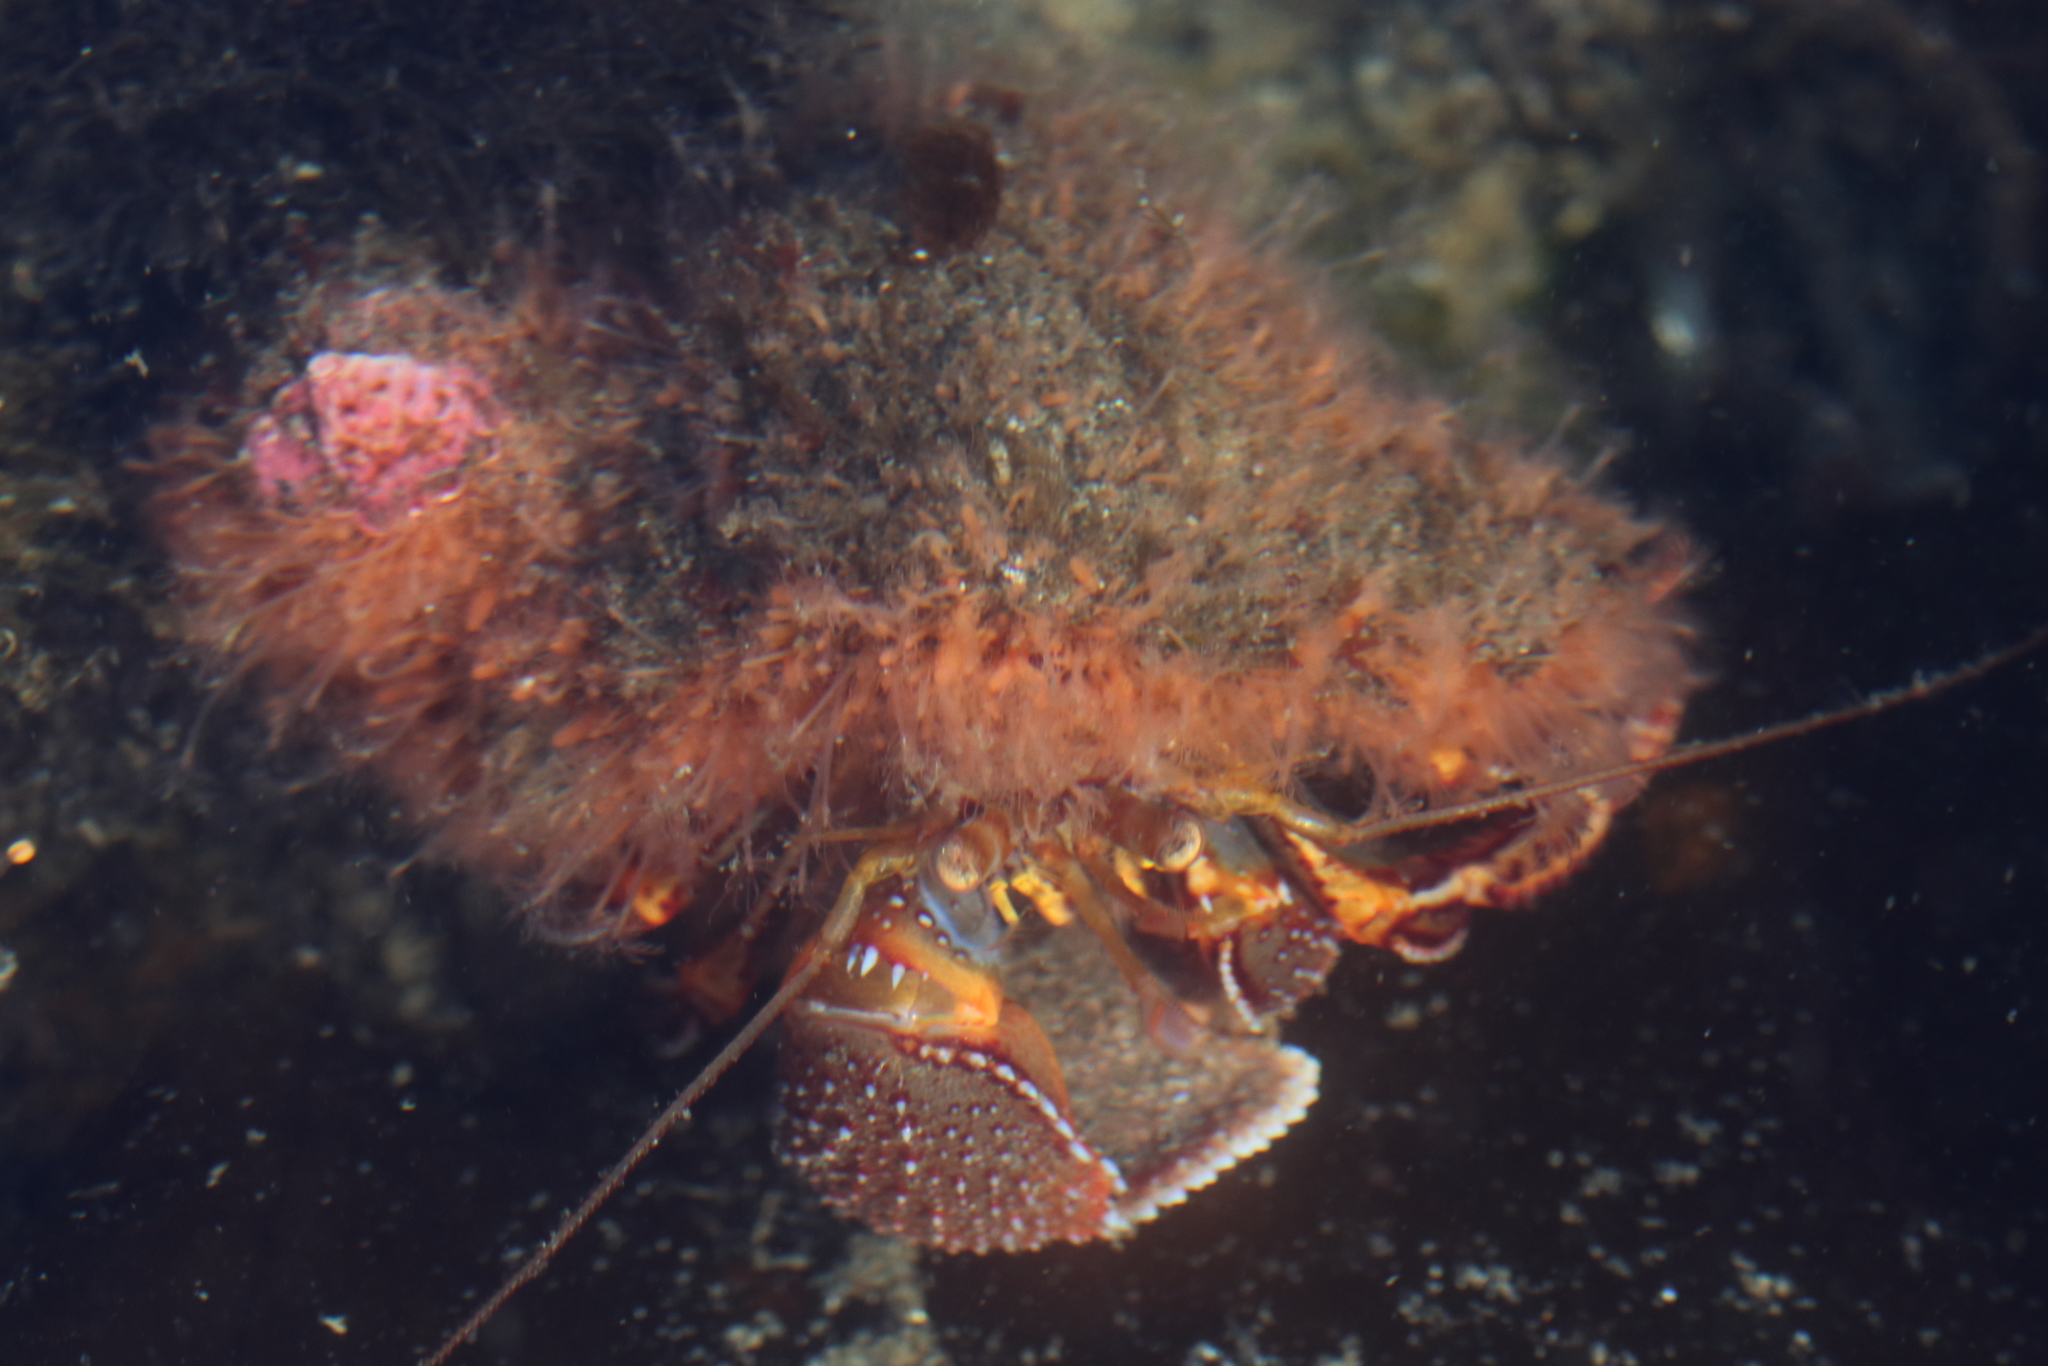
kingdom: Animalia
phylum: Arthropoda
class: Malacostraca
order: Decapoda
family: Paguridae
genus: Elassochirus
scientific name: Elassochirus tenuimanus
